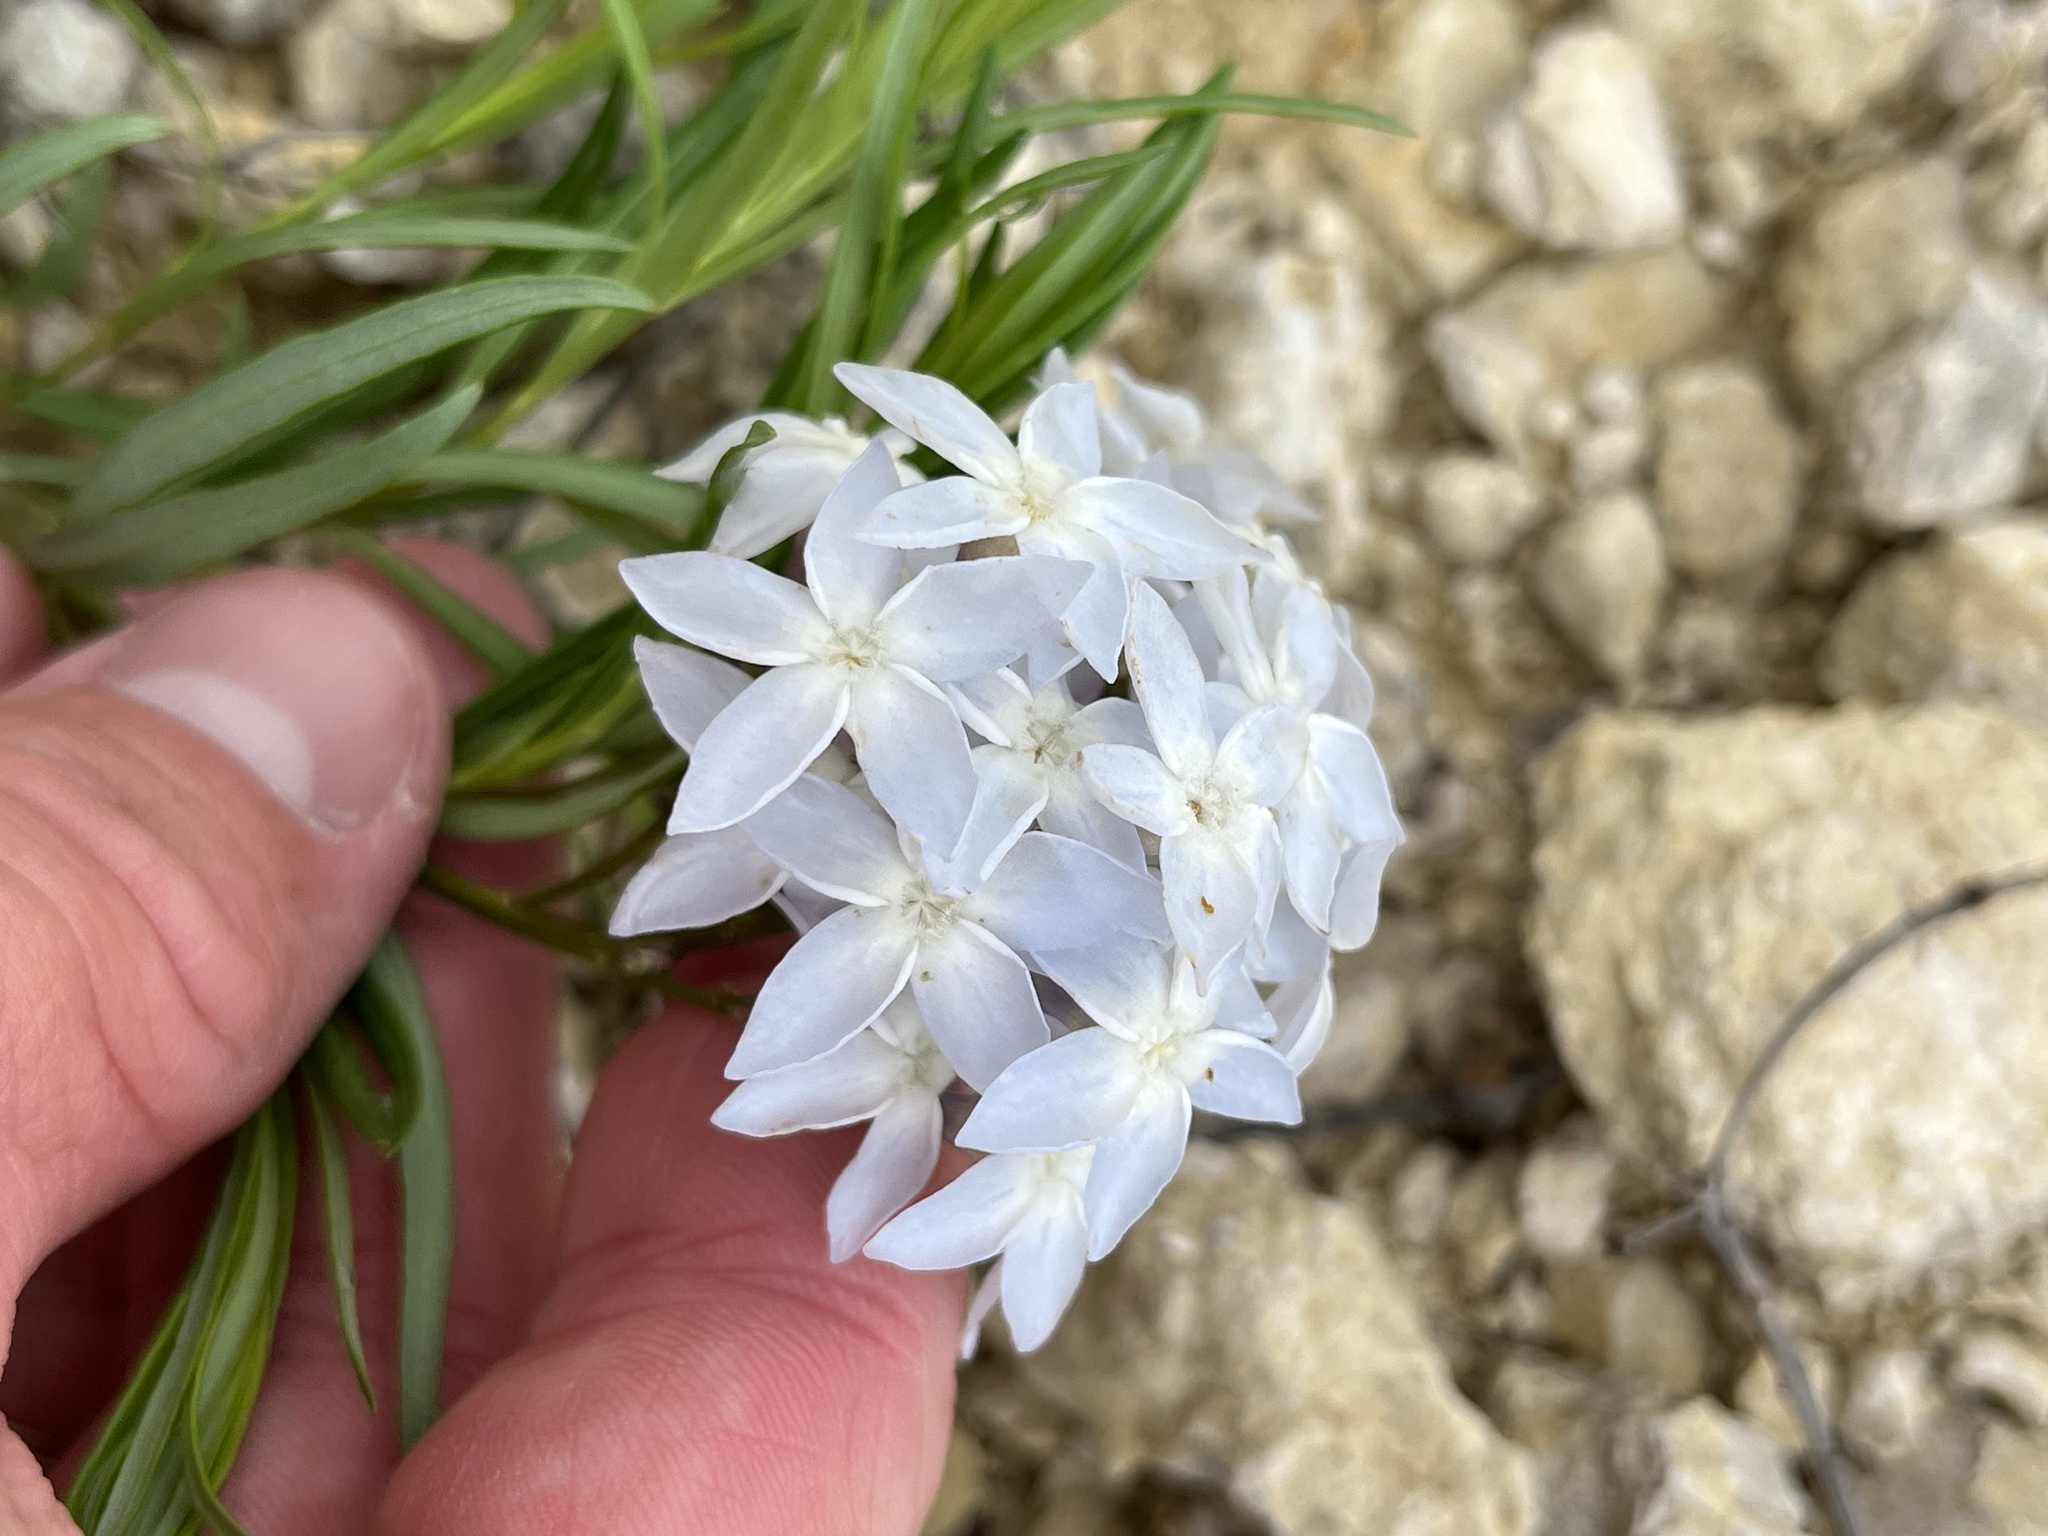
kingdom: Plantae
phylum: Tracheophyta
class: Magnoliopsida
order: Gentianales
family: Apocynaceae
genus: Amsonia
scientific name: Amsonia ciliata
